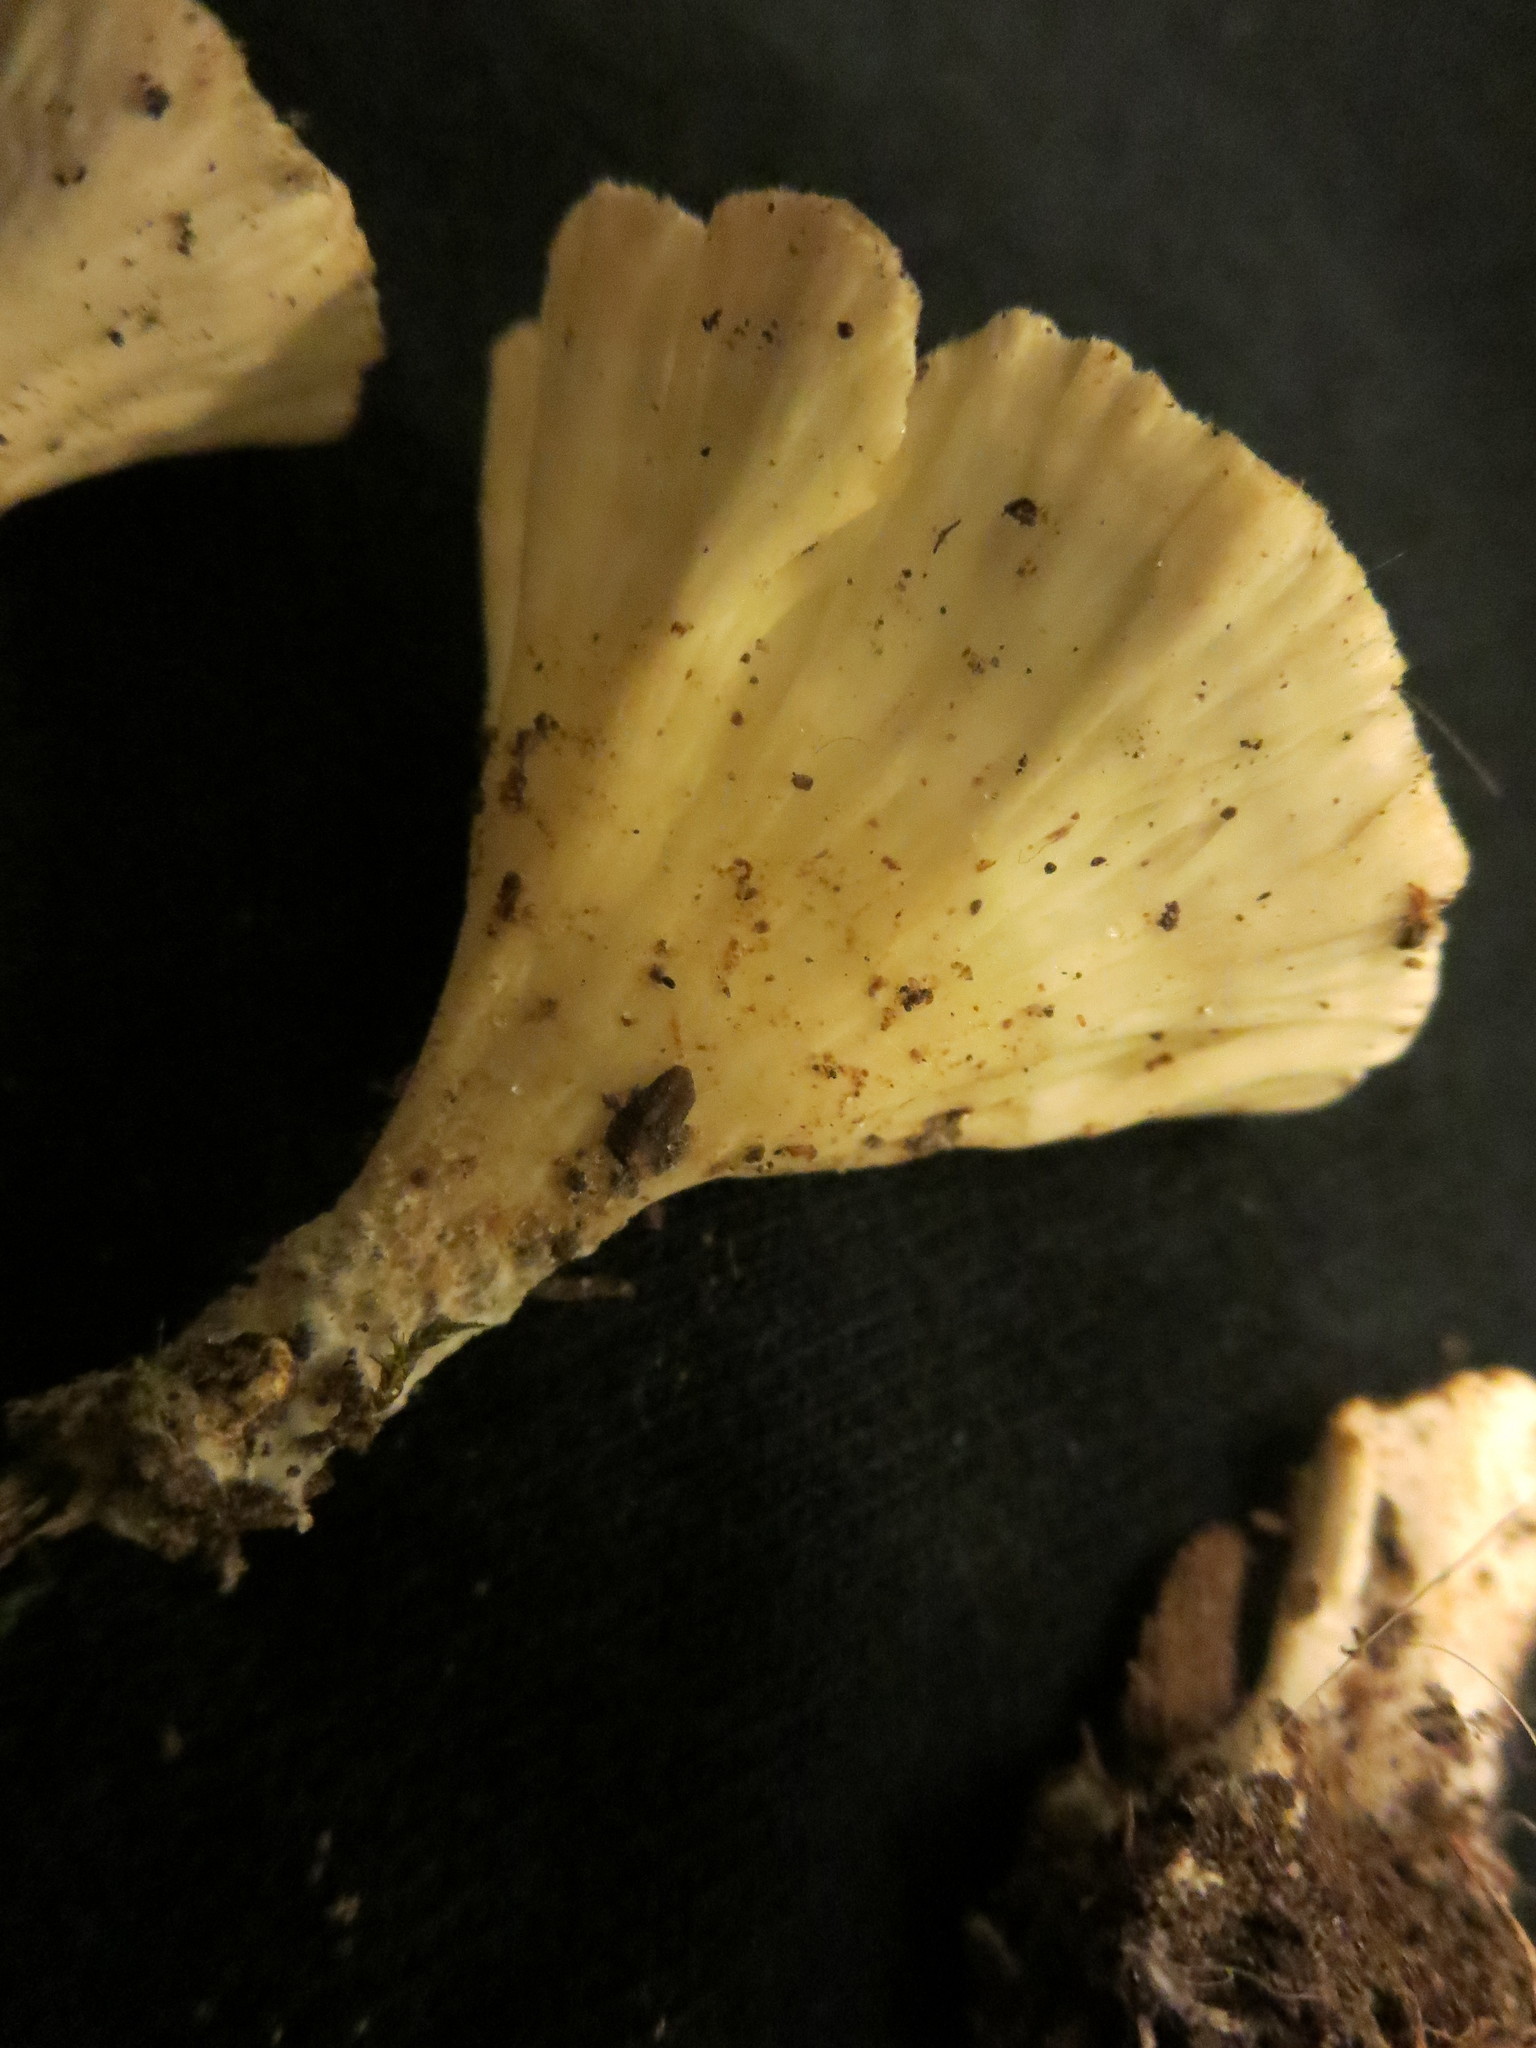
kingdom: Fungi
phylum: Basidiomycota
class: Agaricomycetes
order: Hymenochaetales
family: Rickenellaceae
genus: Cotylidia
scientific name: Cotylidia diaphana
